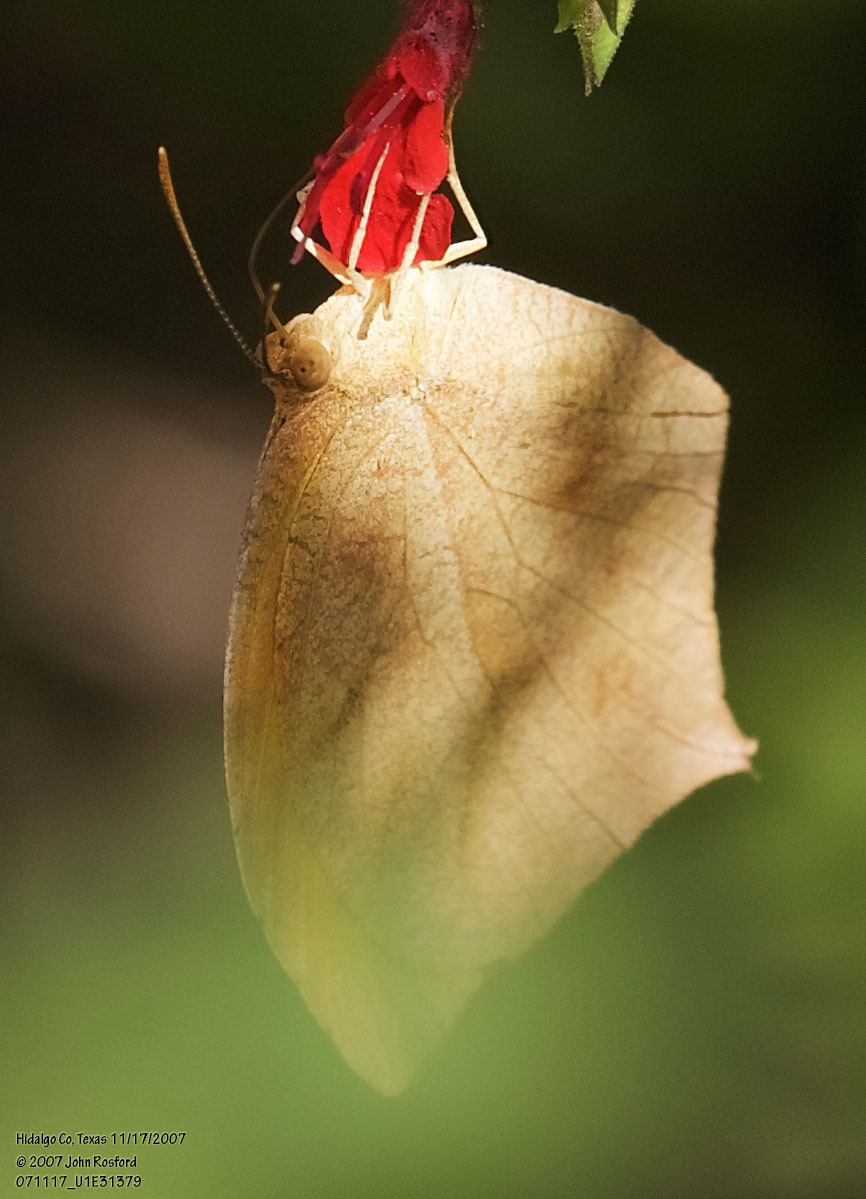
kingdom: Animalia
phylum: Arthropoda
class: Insecta
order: Lepidoptera
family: Pieridae
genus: Pyrisitia
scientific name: Pyrisitia proterpia
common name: Tailed orange
